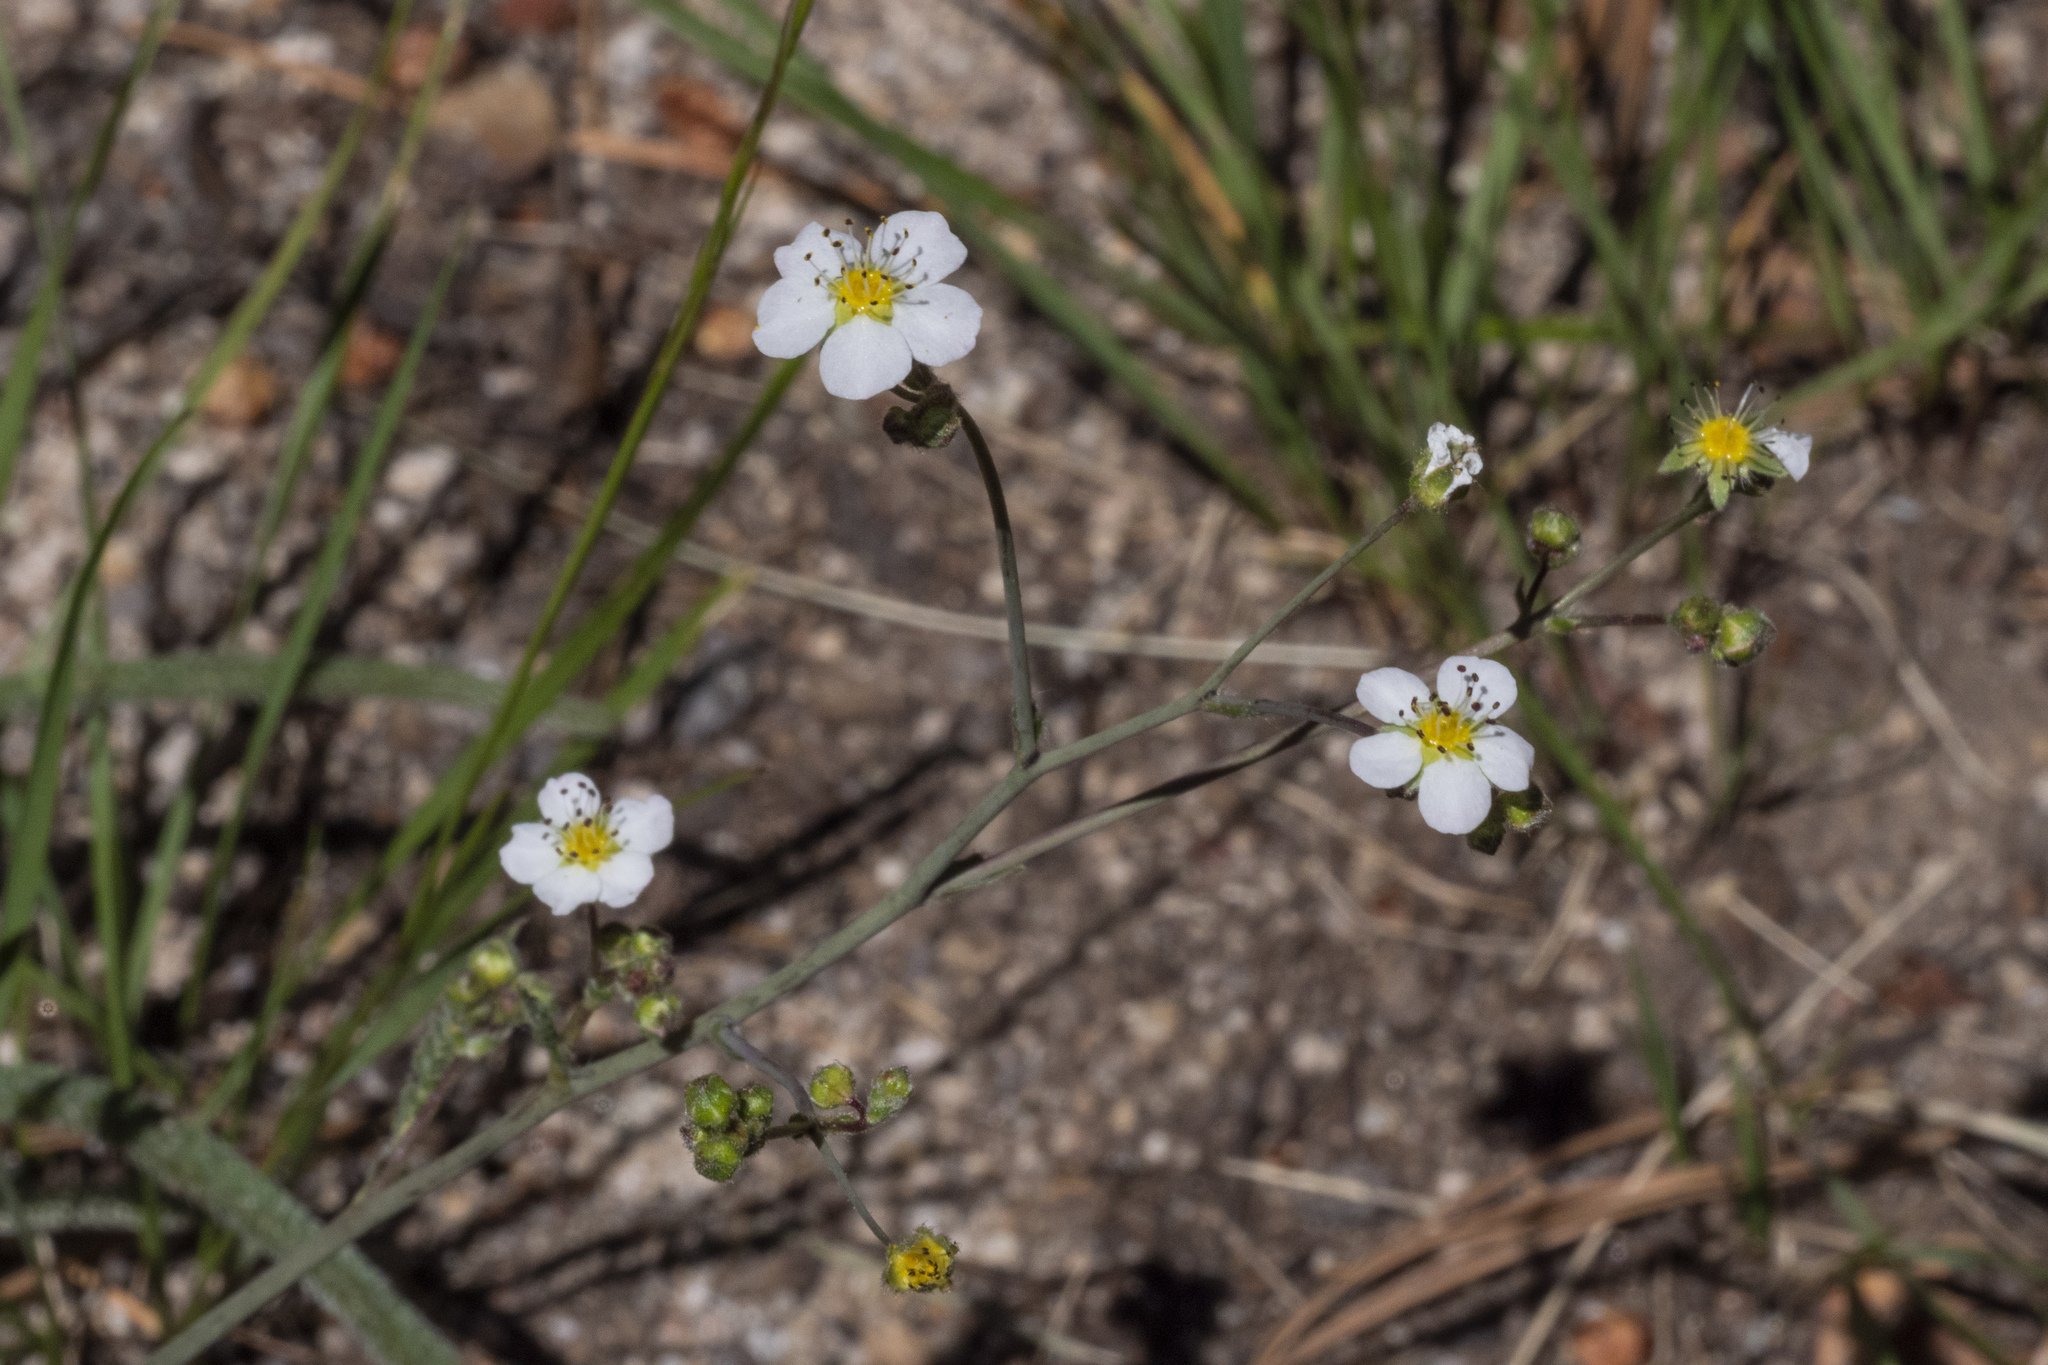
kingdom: Plantae
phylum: Tracheophyta
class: Magnoliopsida
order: Rosales
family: Rosaceae
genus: Potentilla
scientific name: Potentilla santolinoides
